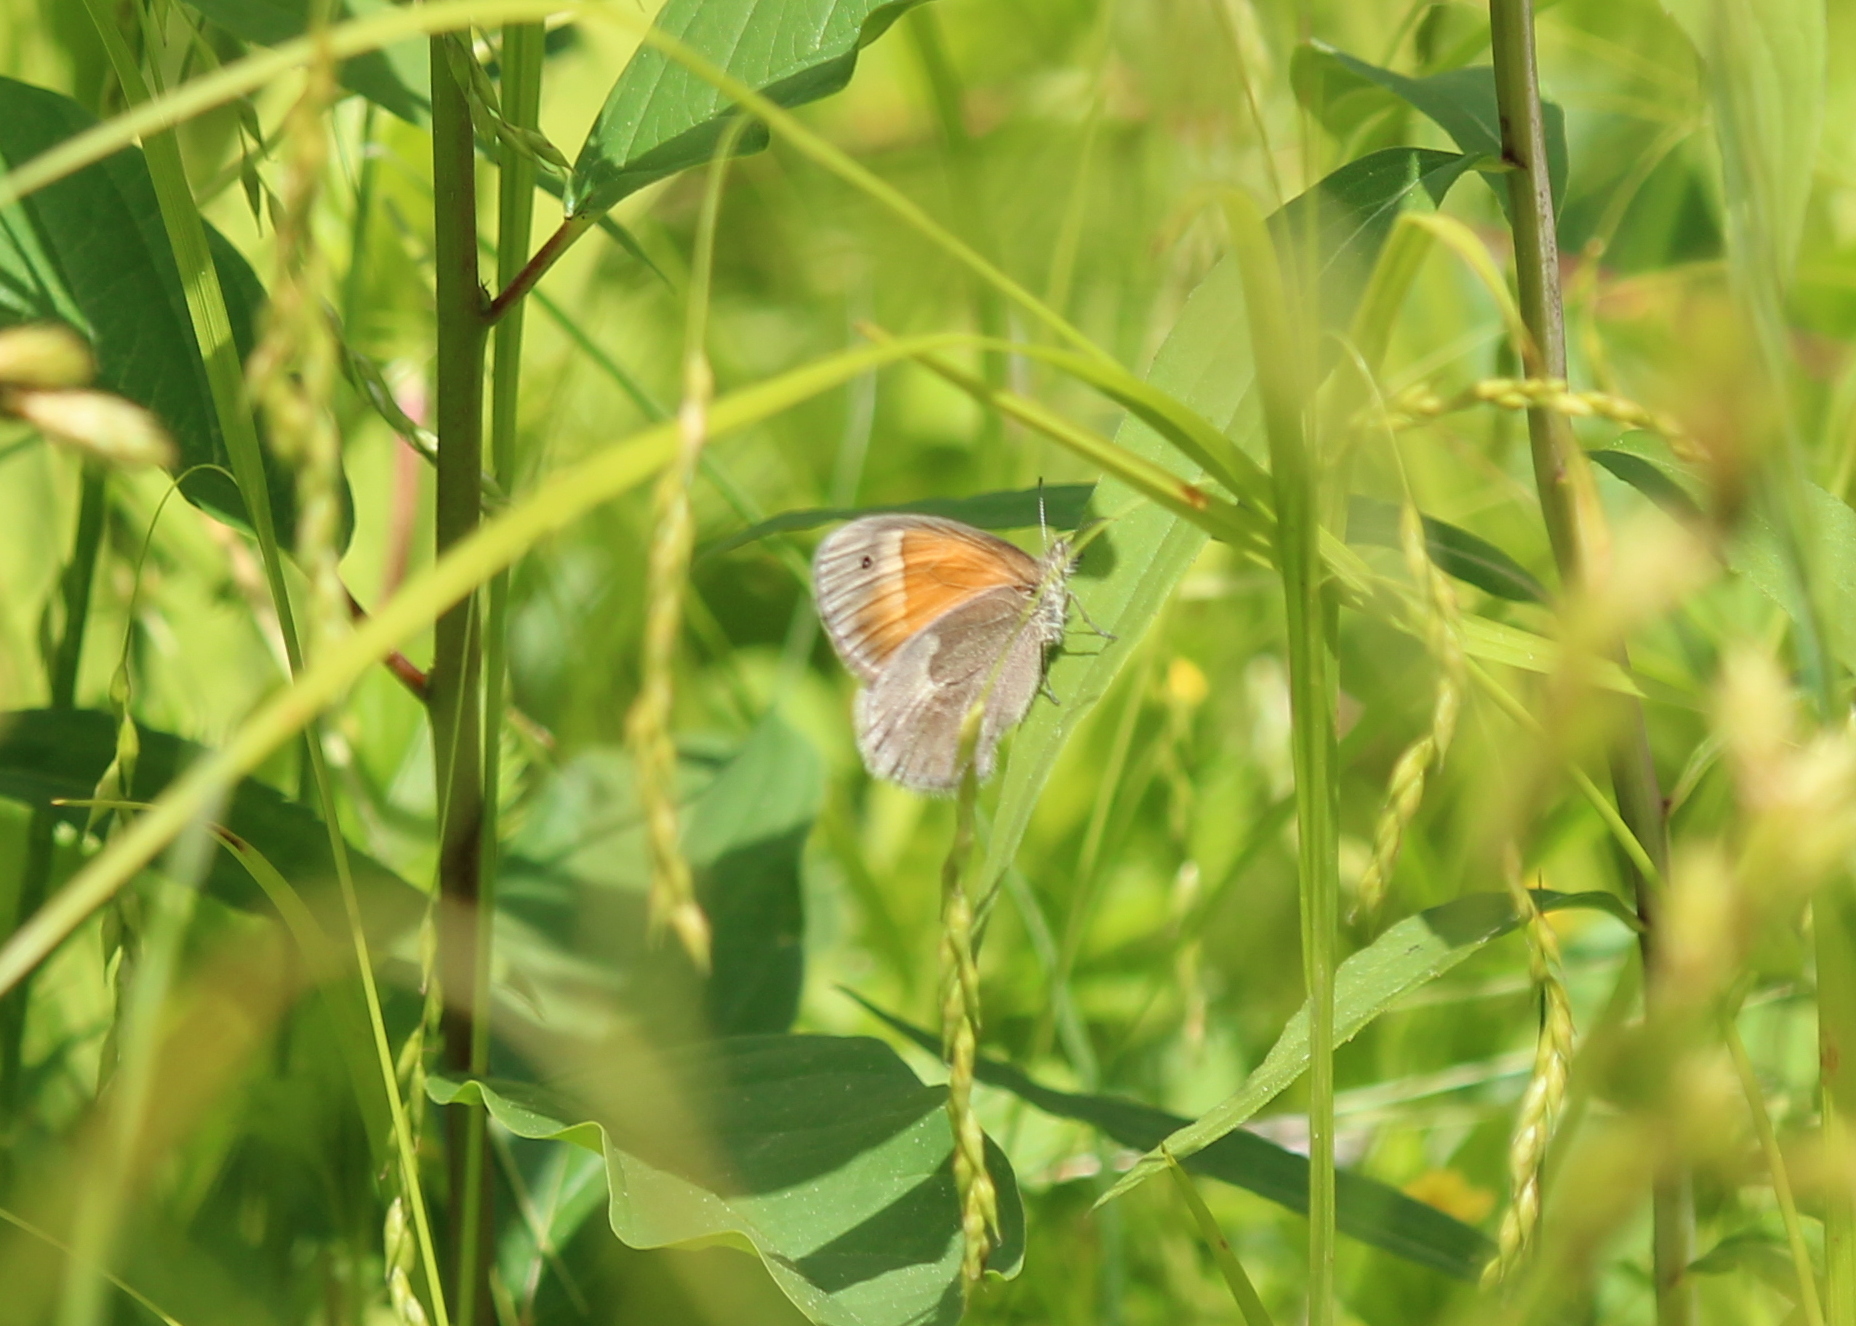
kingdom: Animalia
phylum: Arthropoda
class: Insecta
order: Lepidoptera
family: Nymphalidae
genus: Coenonympha
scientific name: Coenonympha california
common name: Common ringlet
